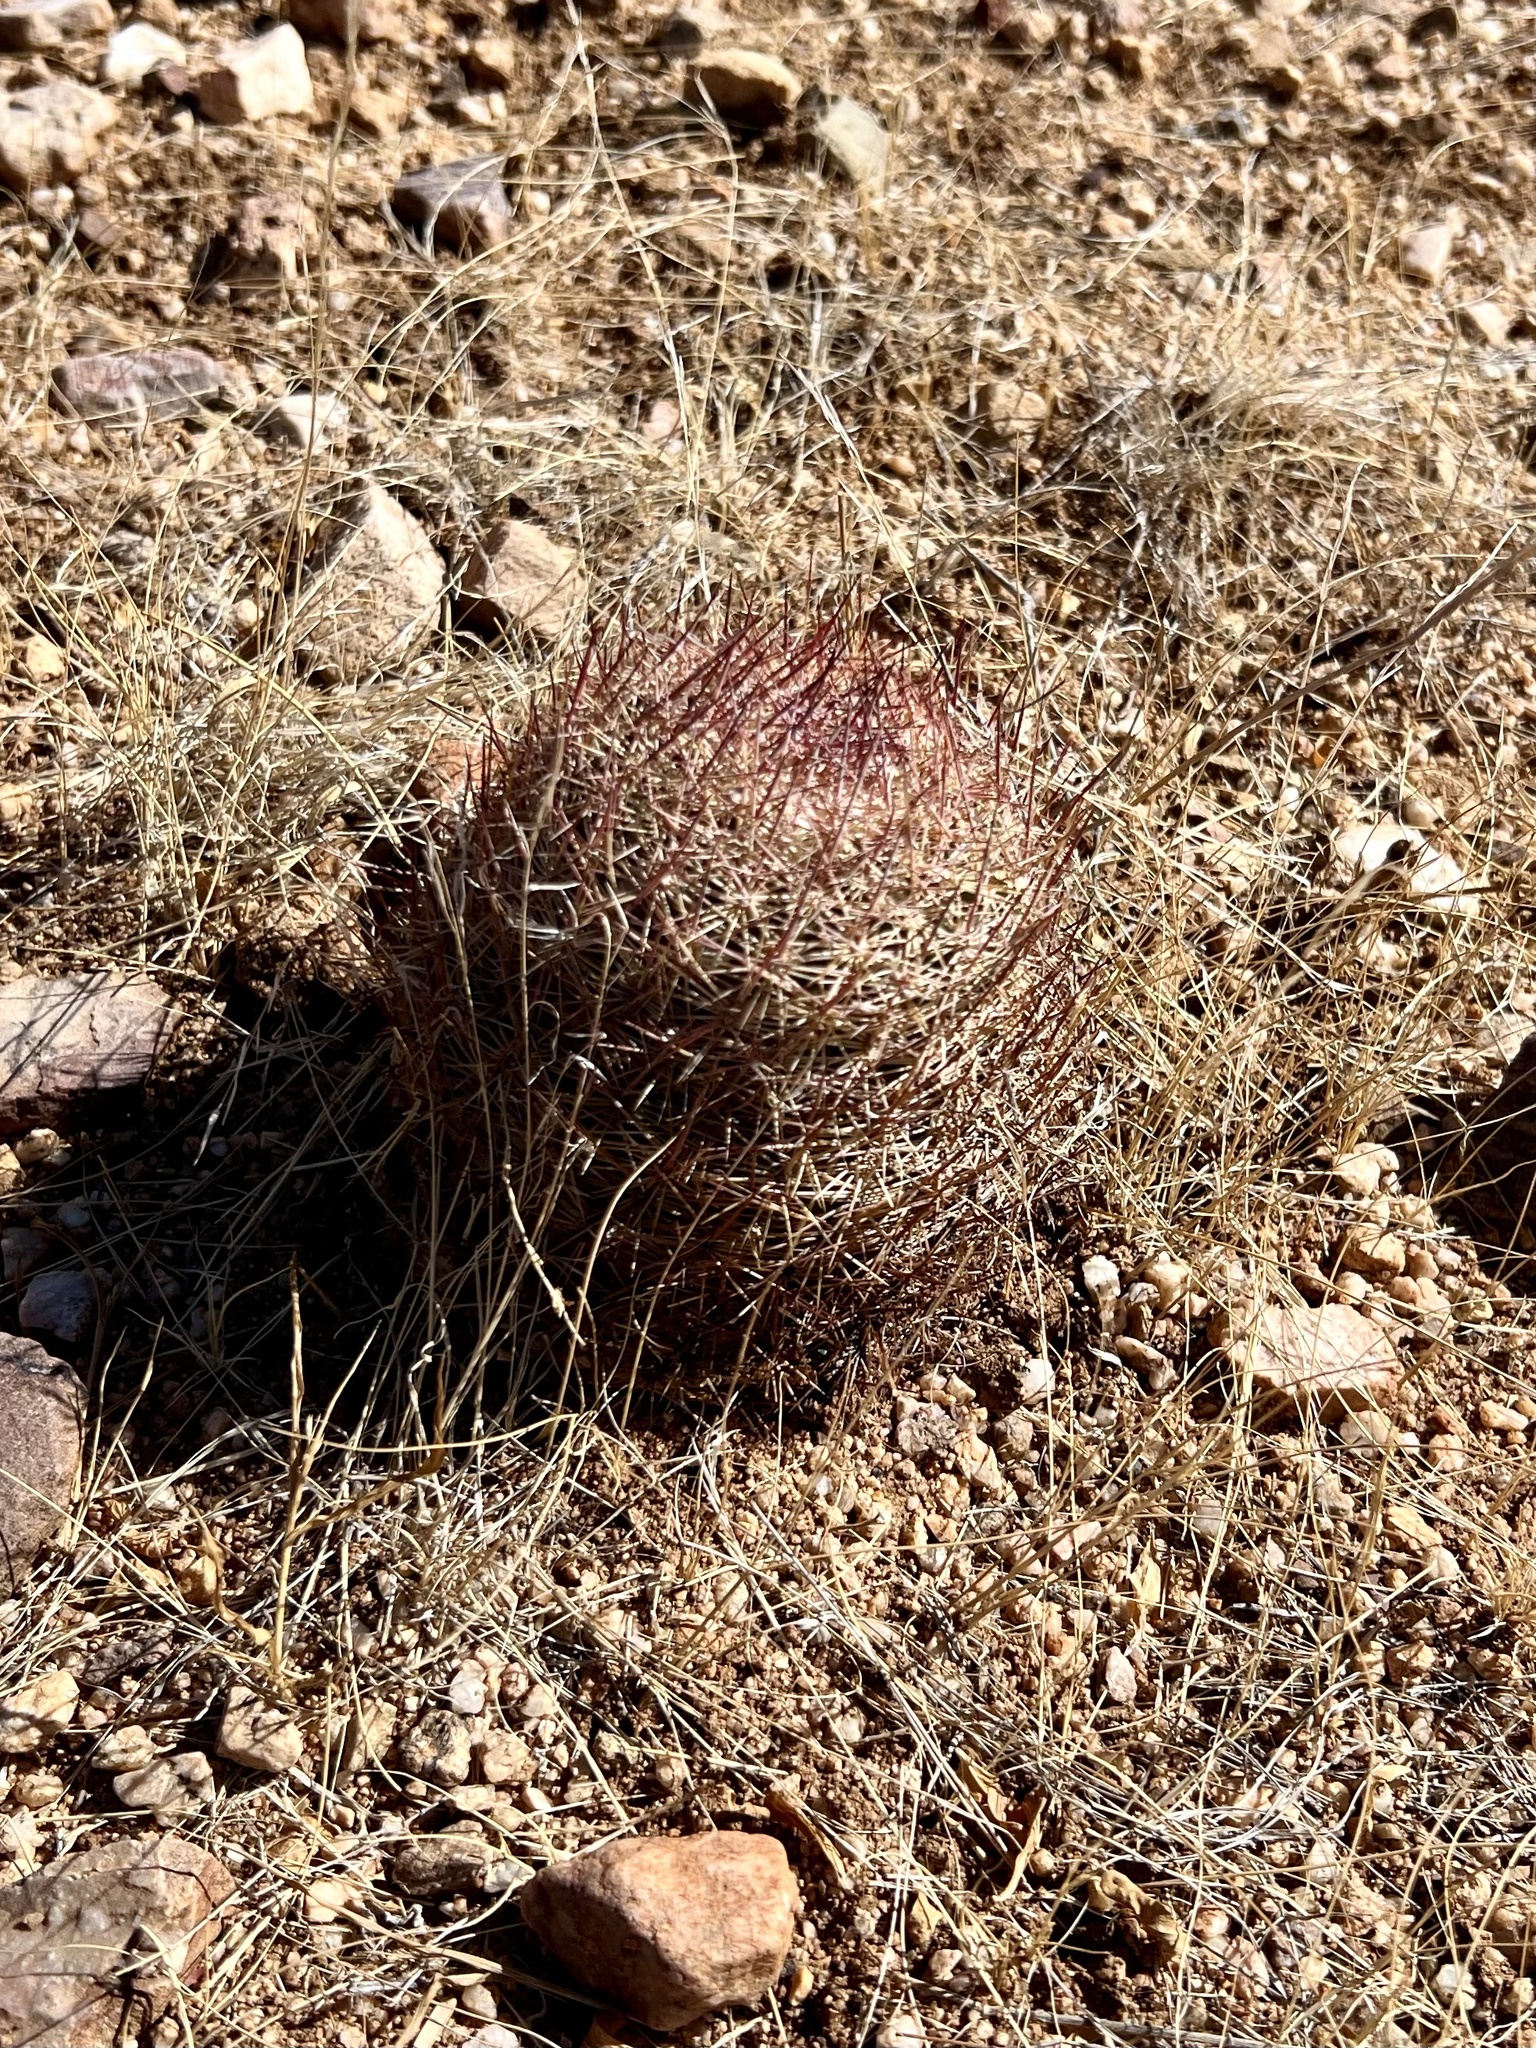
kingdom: Plantae
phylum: Tracheophyta
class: Magnoliopsida
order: Caryophyllales
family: Cactaceae
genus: Sclerocactus
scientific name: Sclerocactus johnsonii
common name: Eight-spine fishhook cactus
